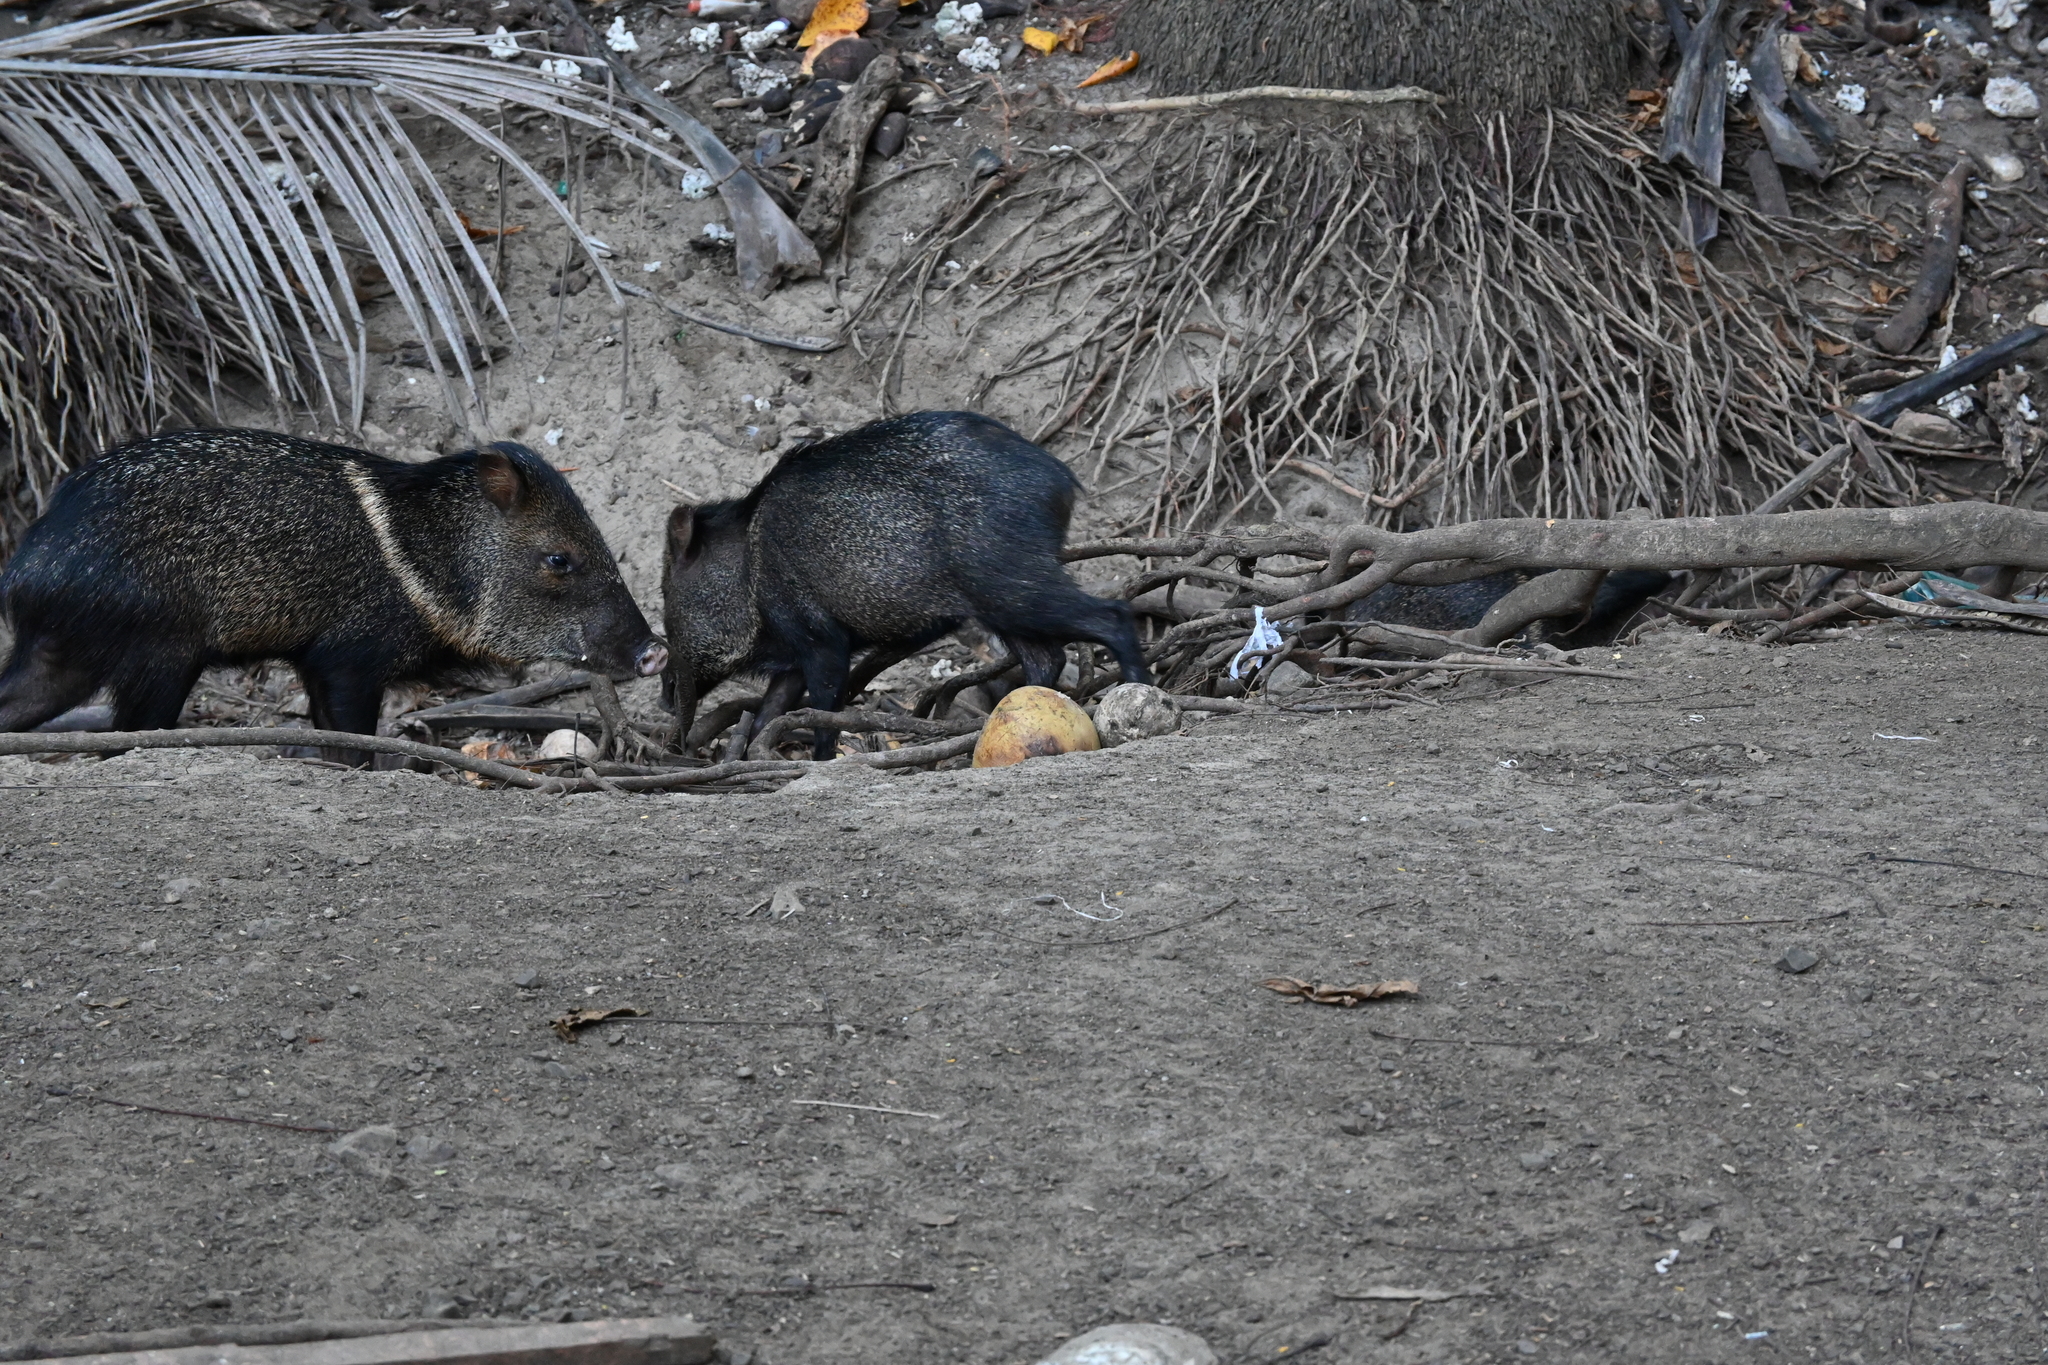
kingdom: Animalia
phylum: Chordata
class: Mammalia
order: Artiodactyla
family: Tayassuidae
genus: Pecari
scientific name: Pecari tajacu
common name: Collared peccary
